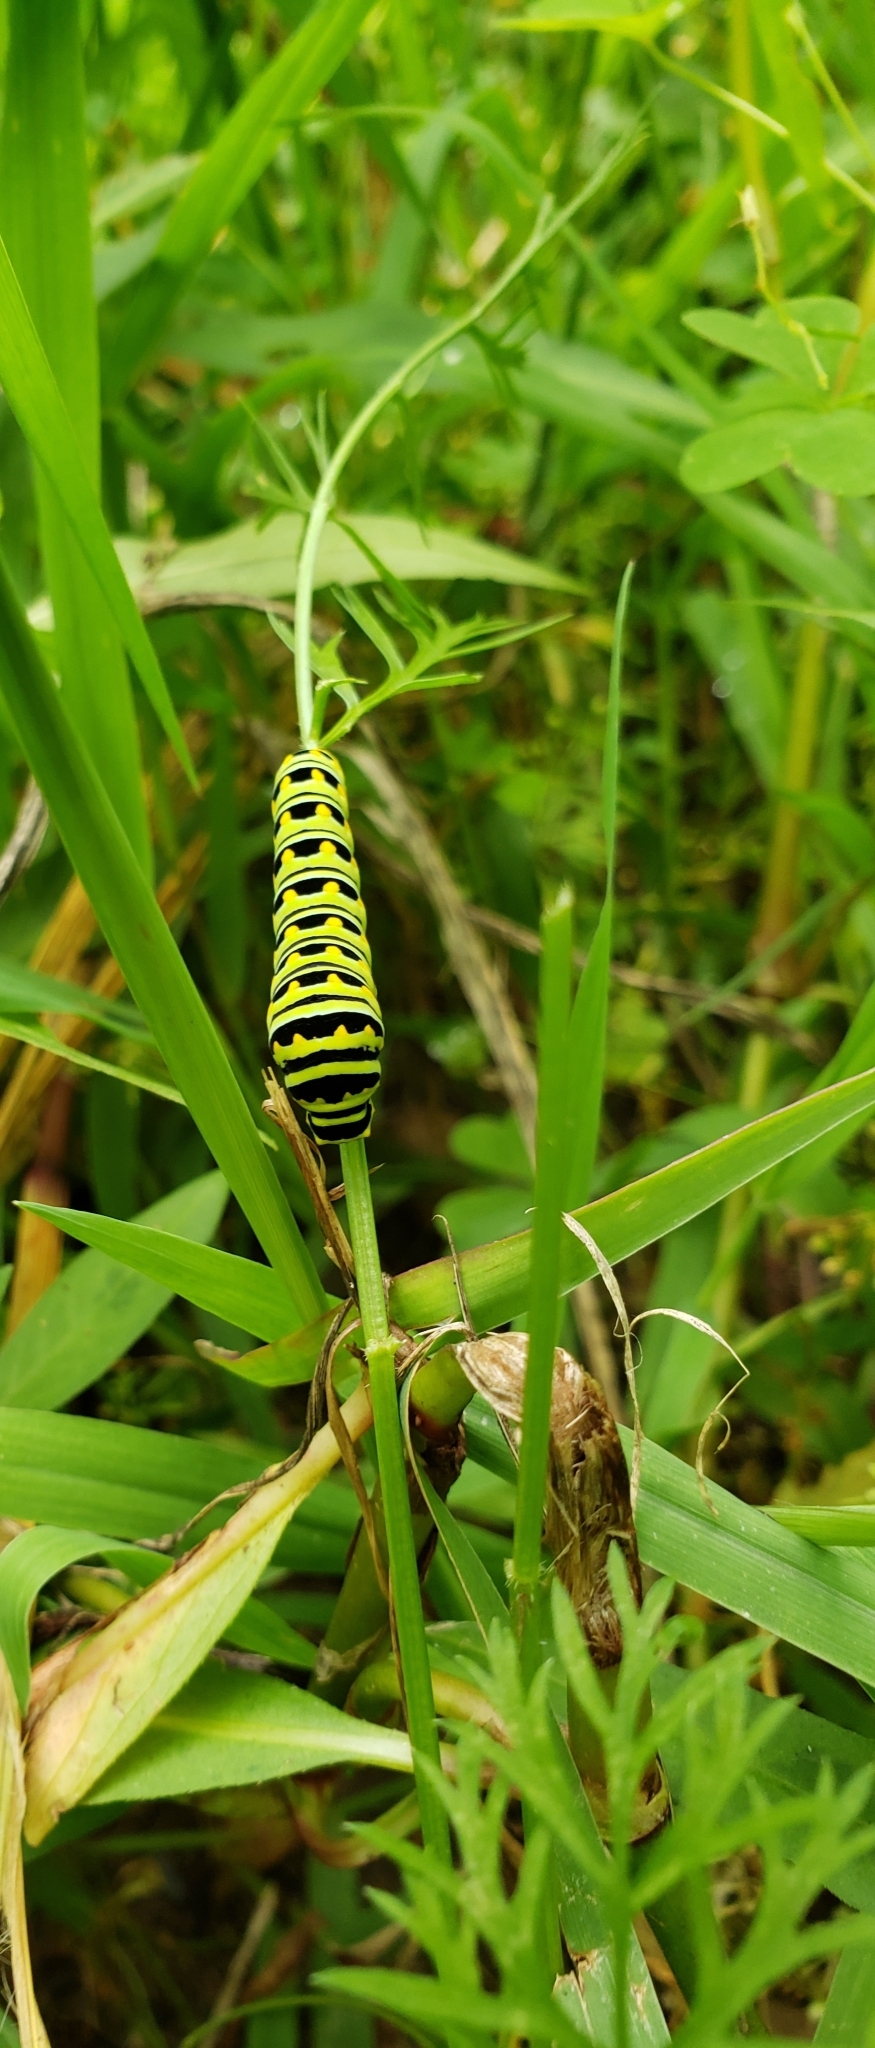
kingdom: Animalia
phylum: Arthropoda
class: Insecta
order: Lepidoptera
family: Papilionidae
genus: Papilio
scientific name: Papilio polyxenes
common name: Black swallowtail
